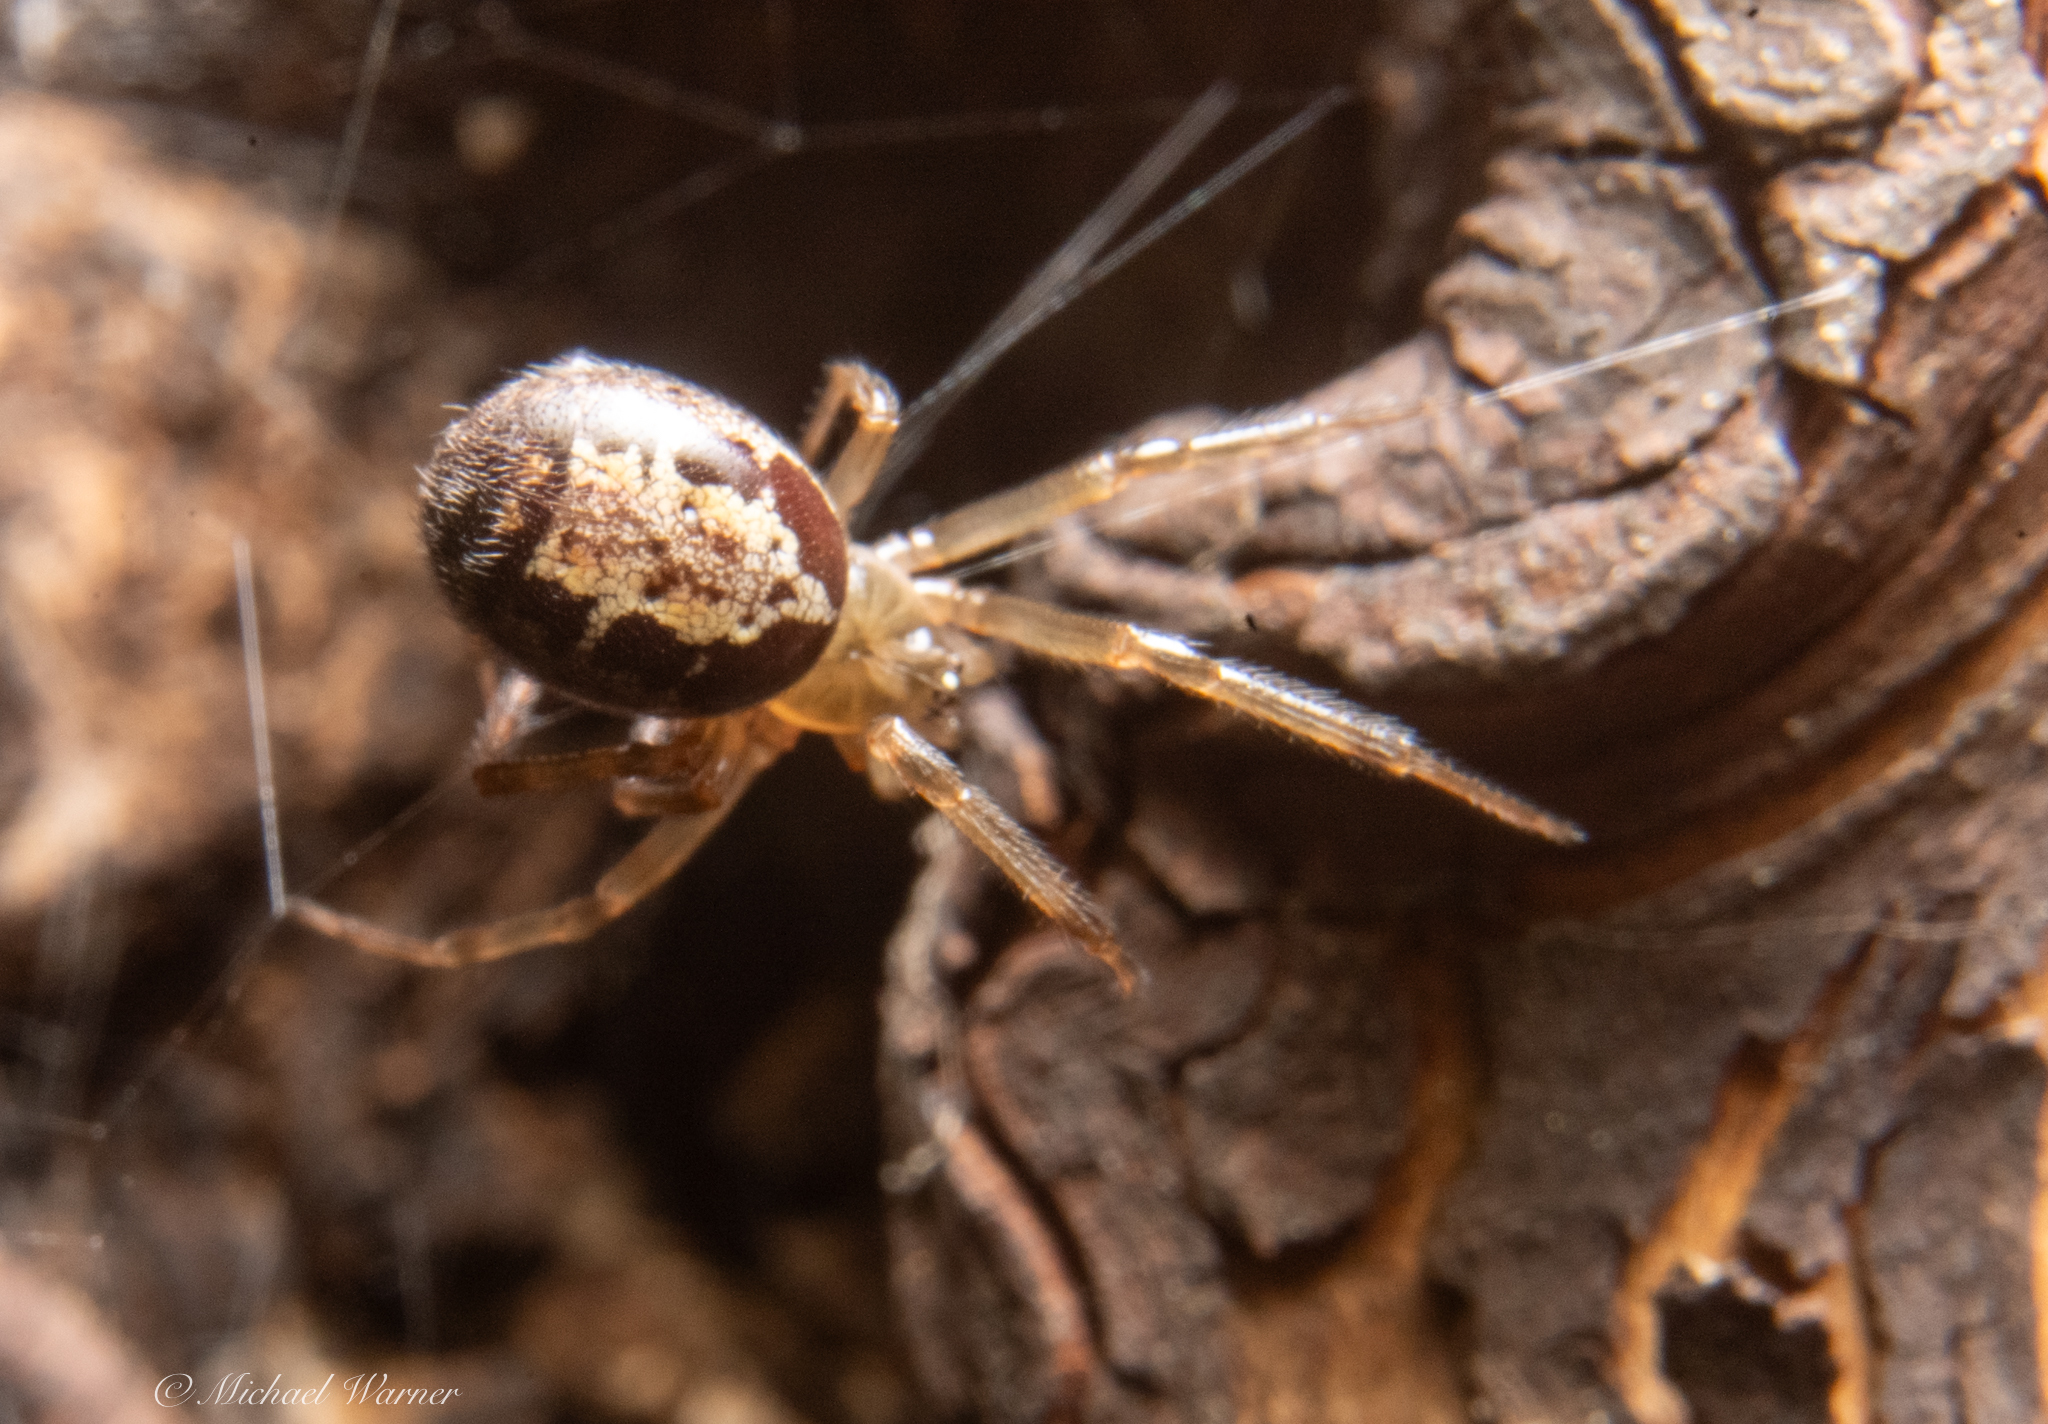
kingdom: Animalia
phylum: Arthropoda
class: Arachnida
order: Araneae
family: Theridiidae
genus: Steatoda
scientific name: Steatoda nobilis
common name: Cobweb weaver
